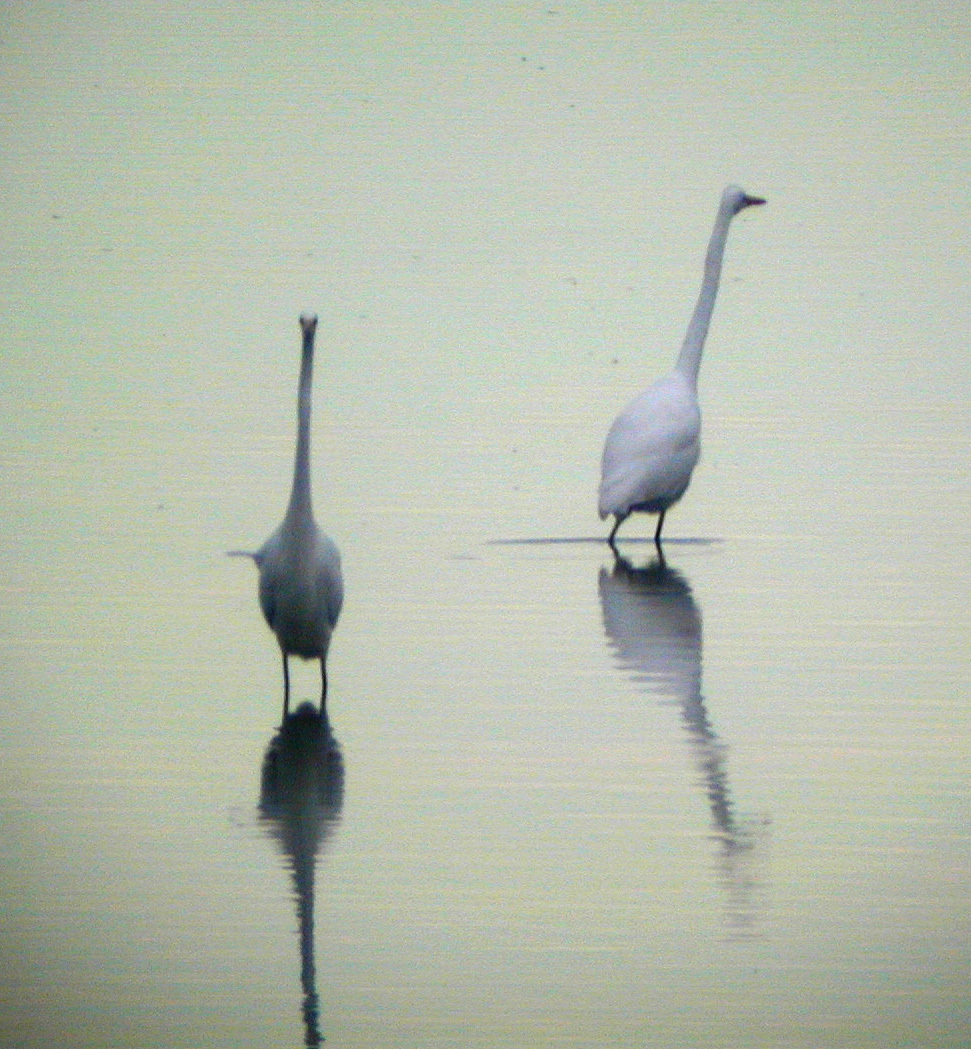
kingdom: Animalia
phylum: Chordata
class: Aves
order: Pelecaniformes
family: Ardeidae
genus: Ardea
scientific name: Ardea alba
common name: Great egret
